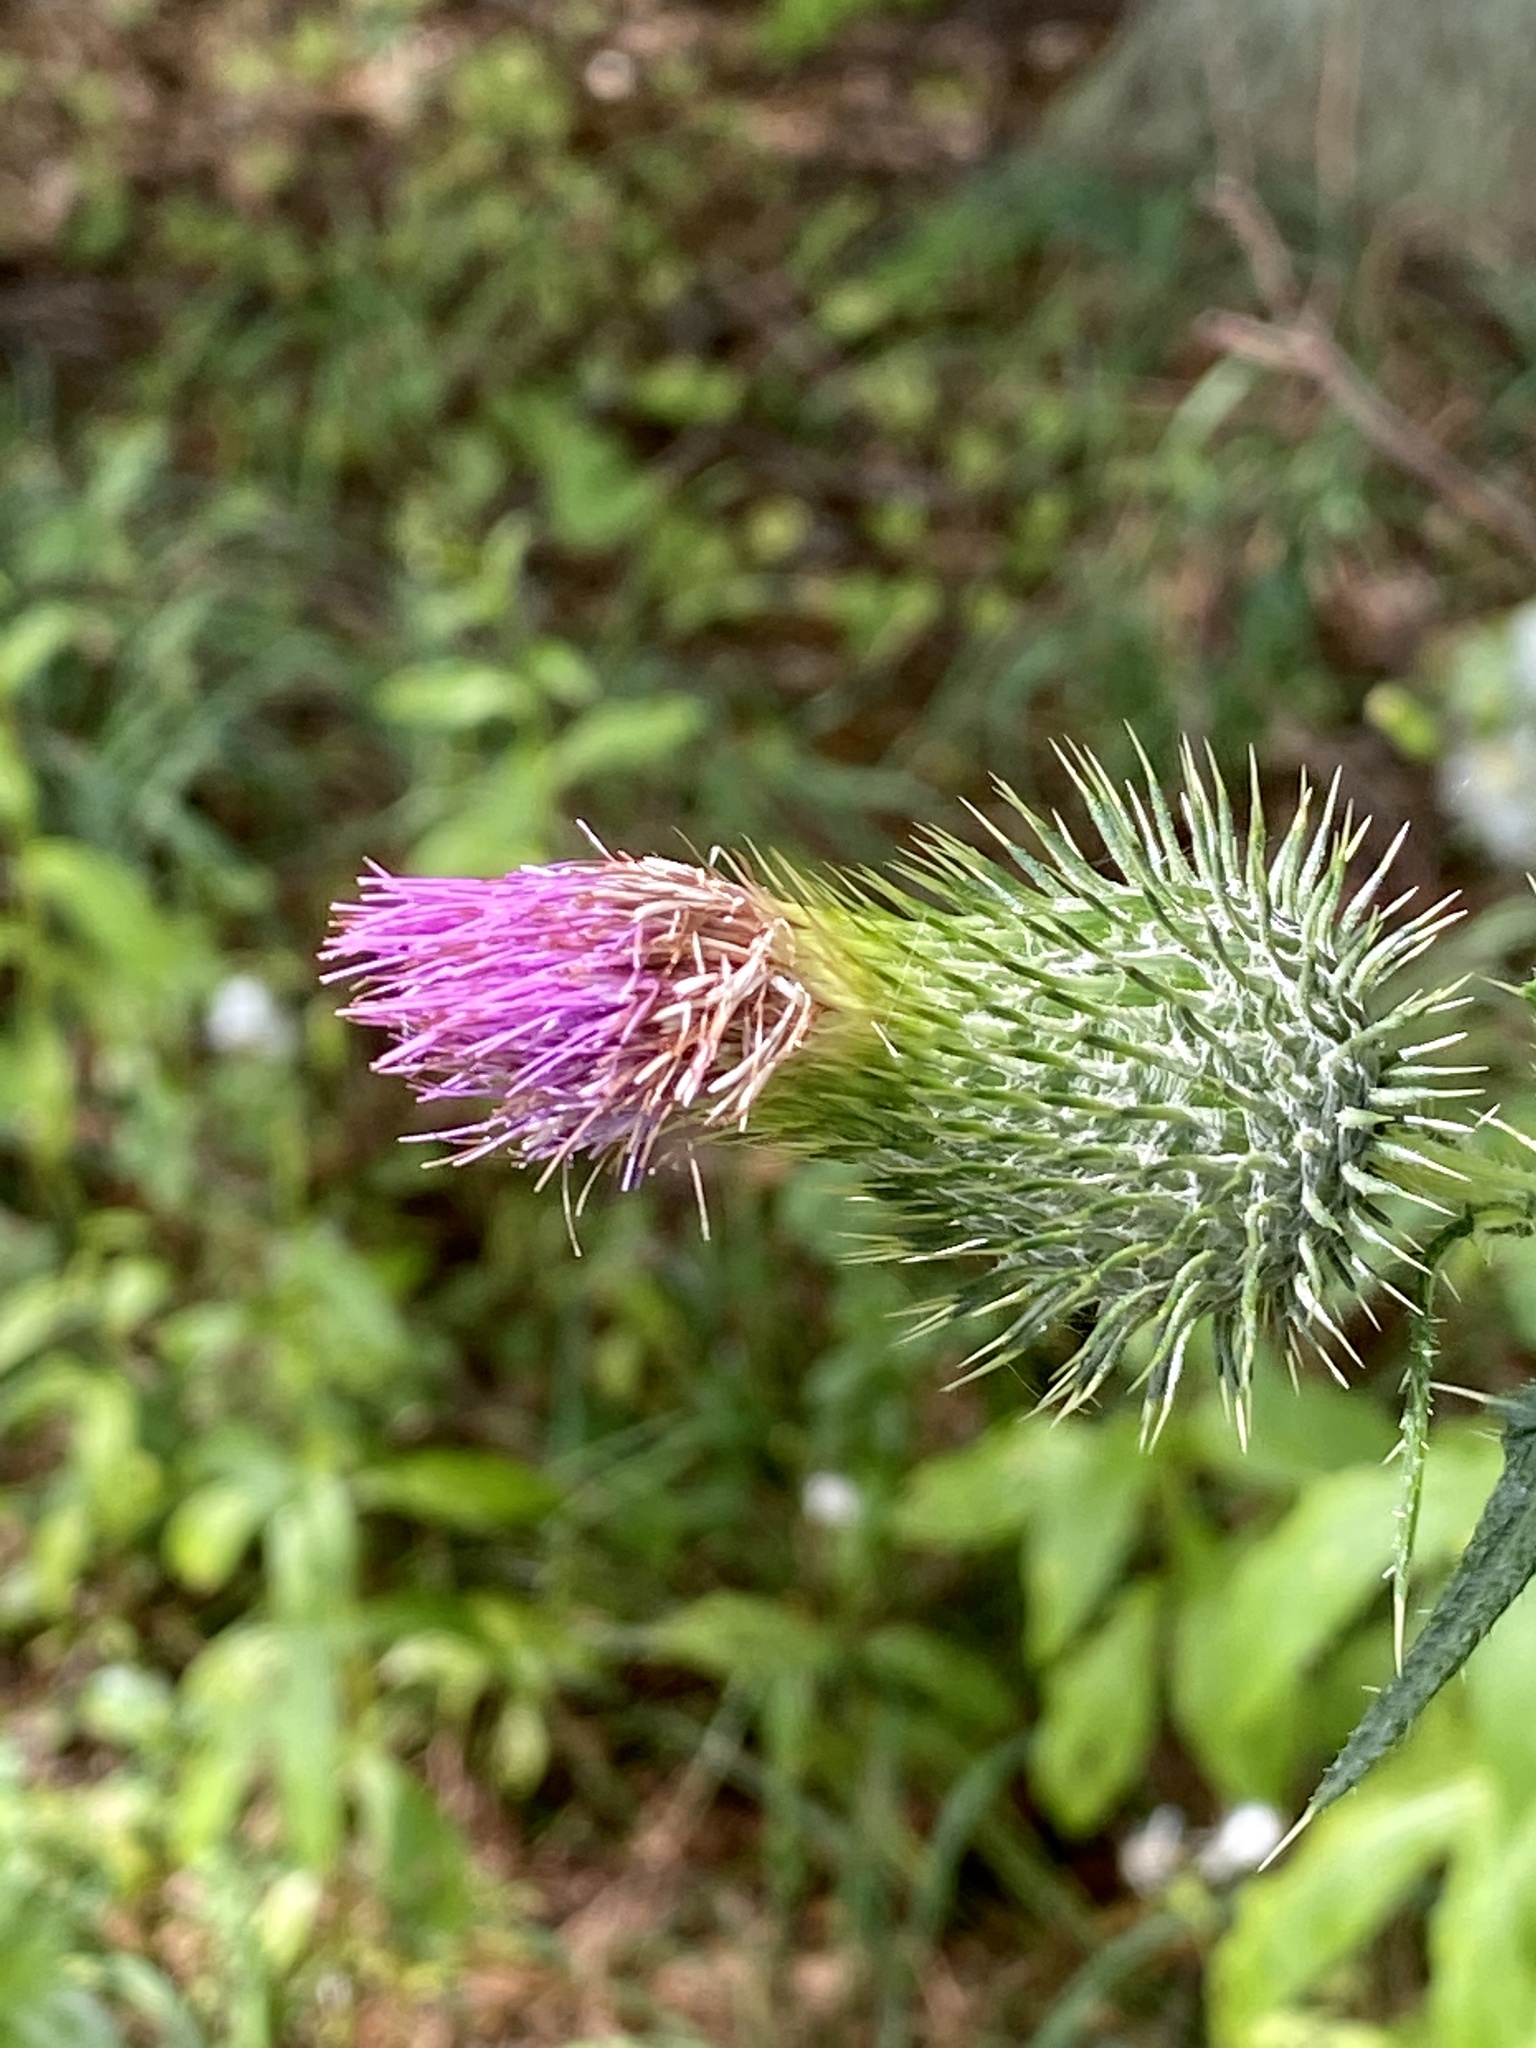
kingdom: Plantae
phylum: Tracheophyta
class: Magnoliopsida
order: Asterales
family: Asteraceae
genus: Cirsium
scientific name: Cirsium vulgare
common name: Bull thistle
